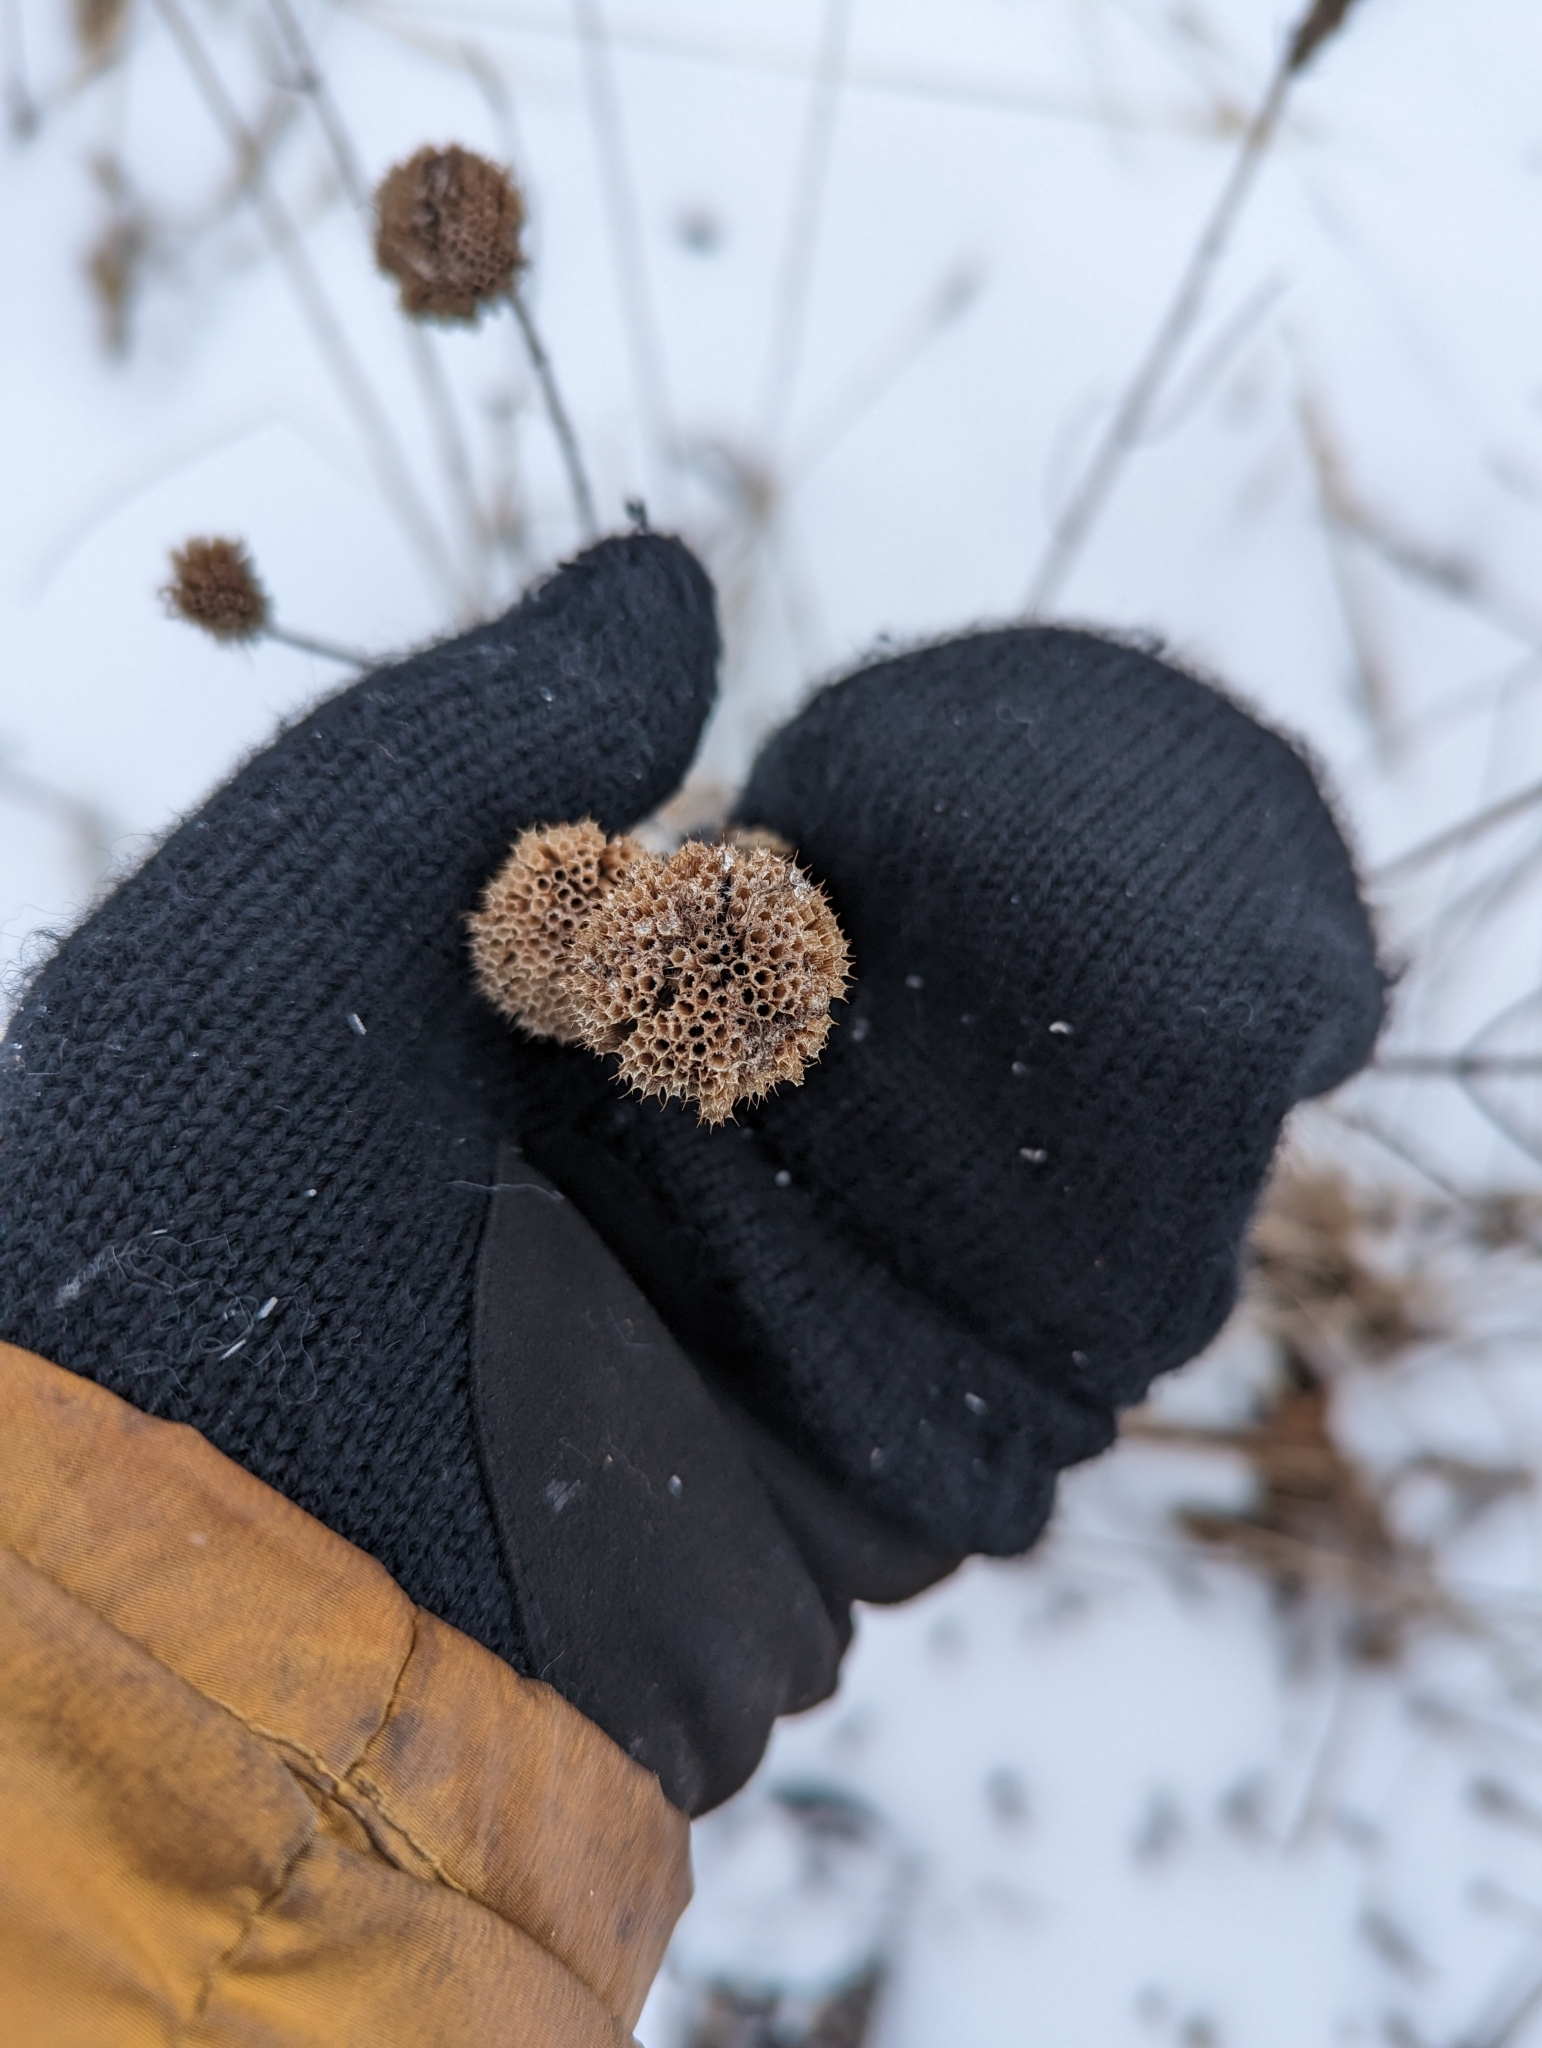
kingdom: Plantae
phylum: Tracheophyta
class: Magnoliopsida
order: Lamiales
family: Lamiaceae
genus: Monarda
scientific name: Monarda fistulosa
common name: Purple beebalm
